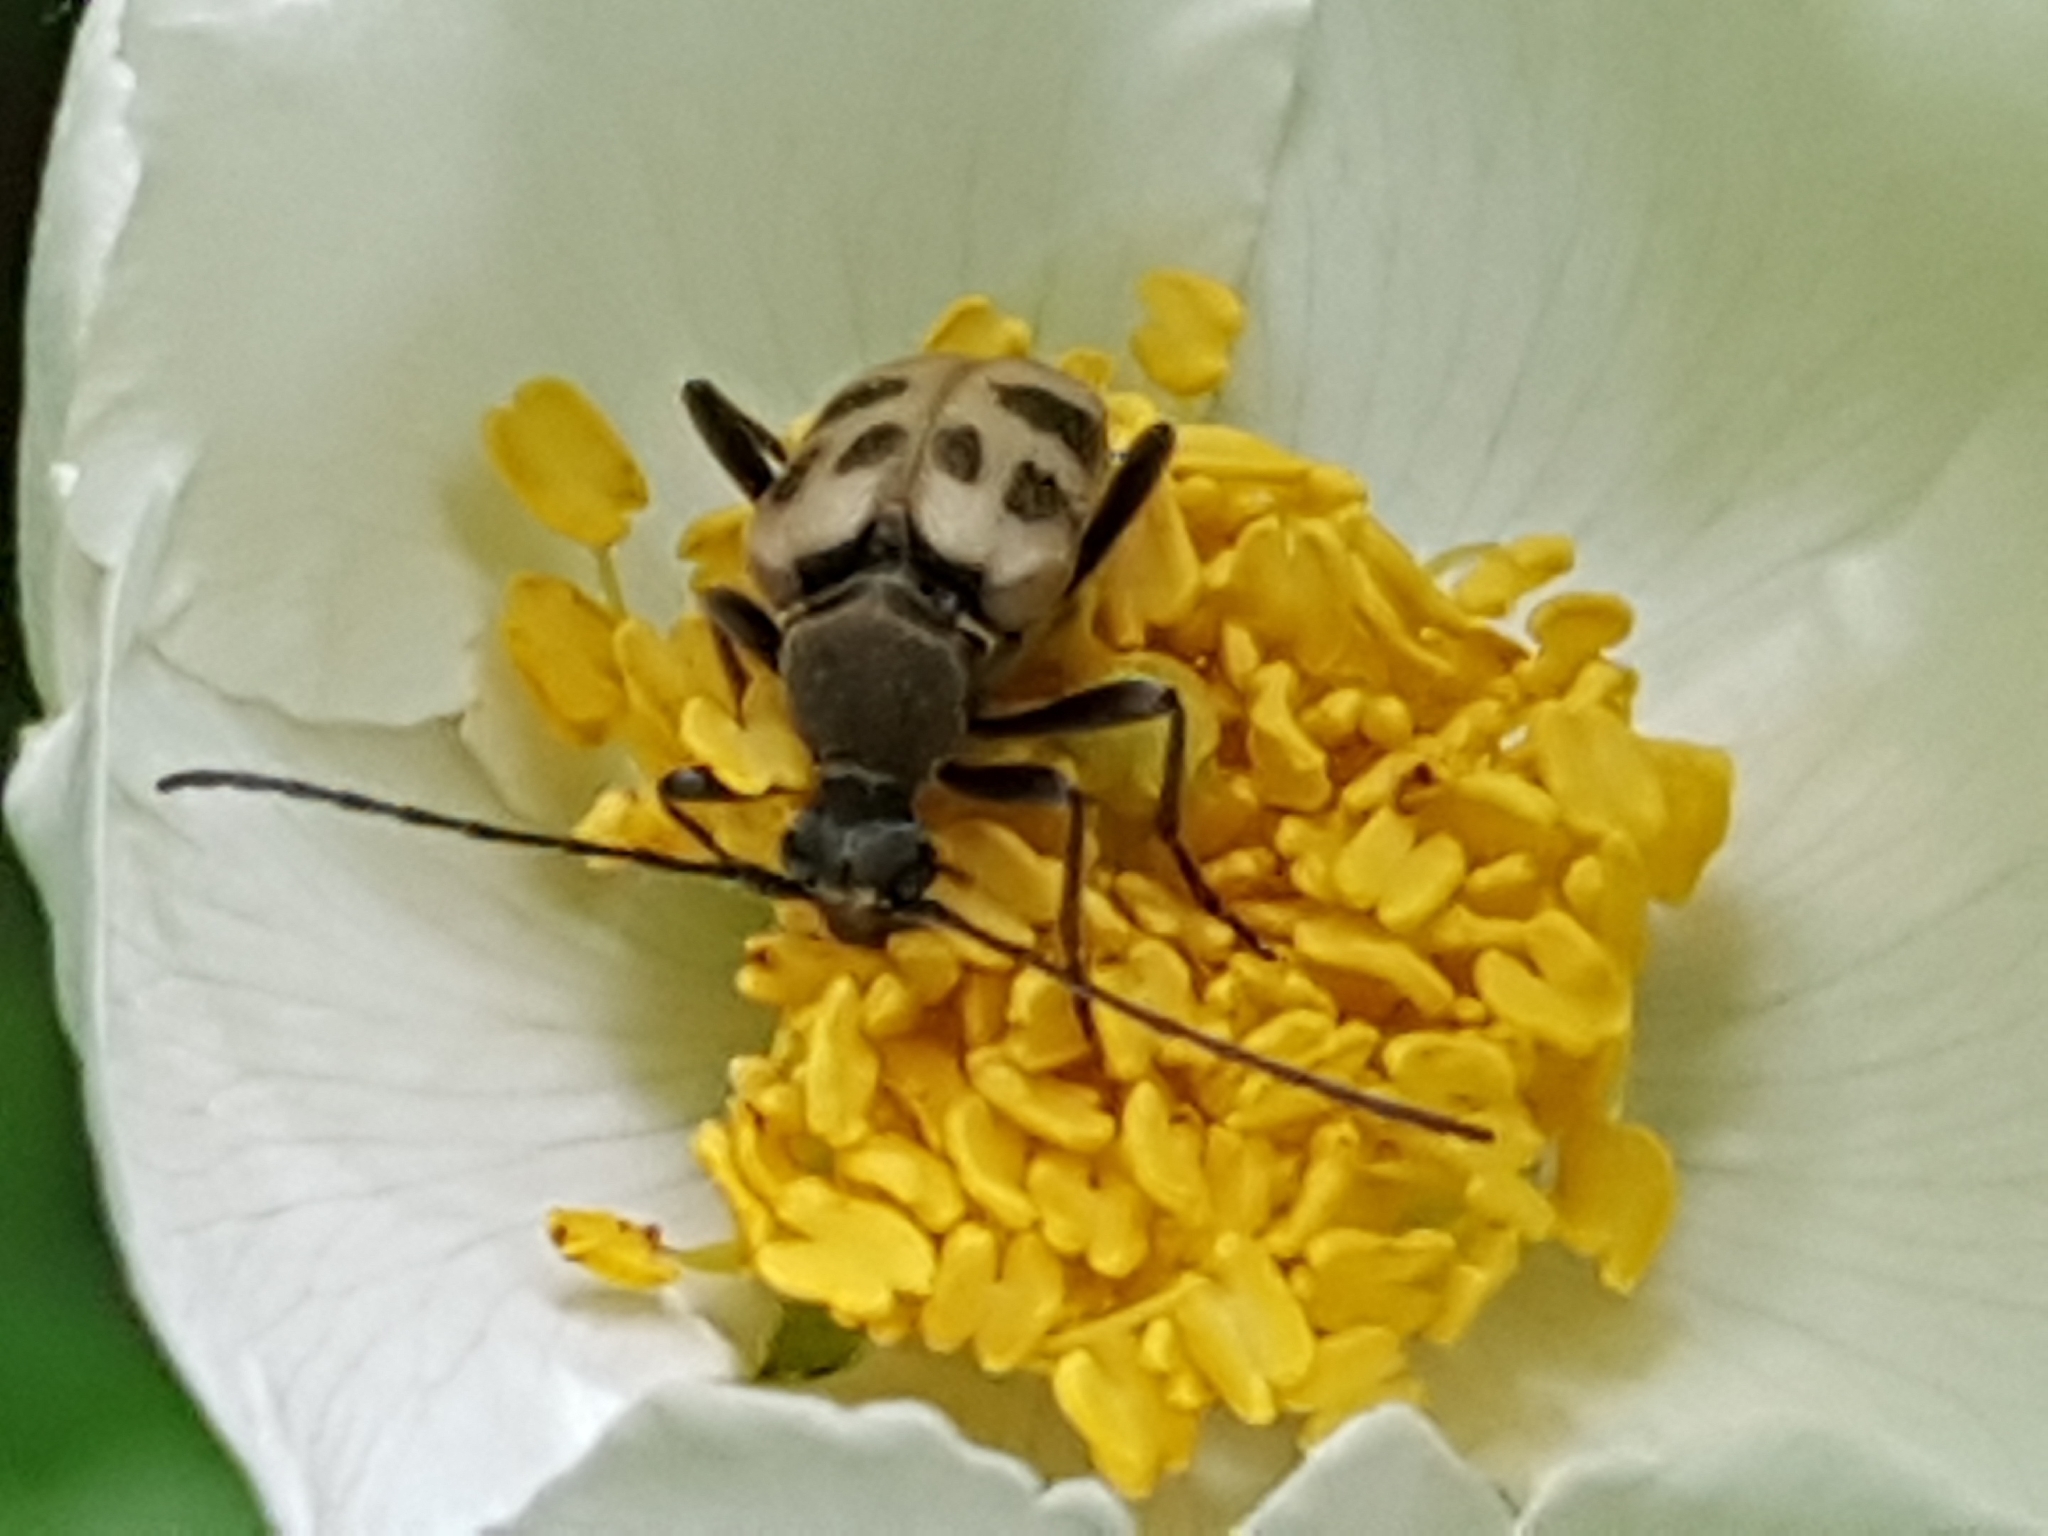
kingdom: Animalia
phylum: Arthropoda
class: Insecta
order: Coleoptera
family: Cerambycidae
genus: Pachytodes
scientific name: Pachytodes cerambyciformis
